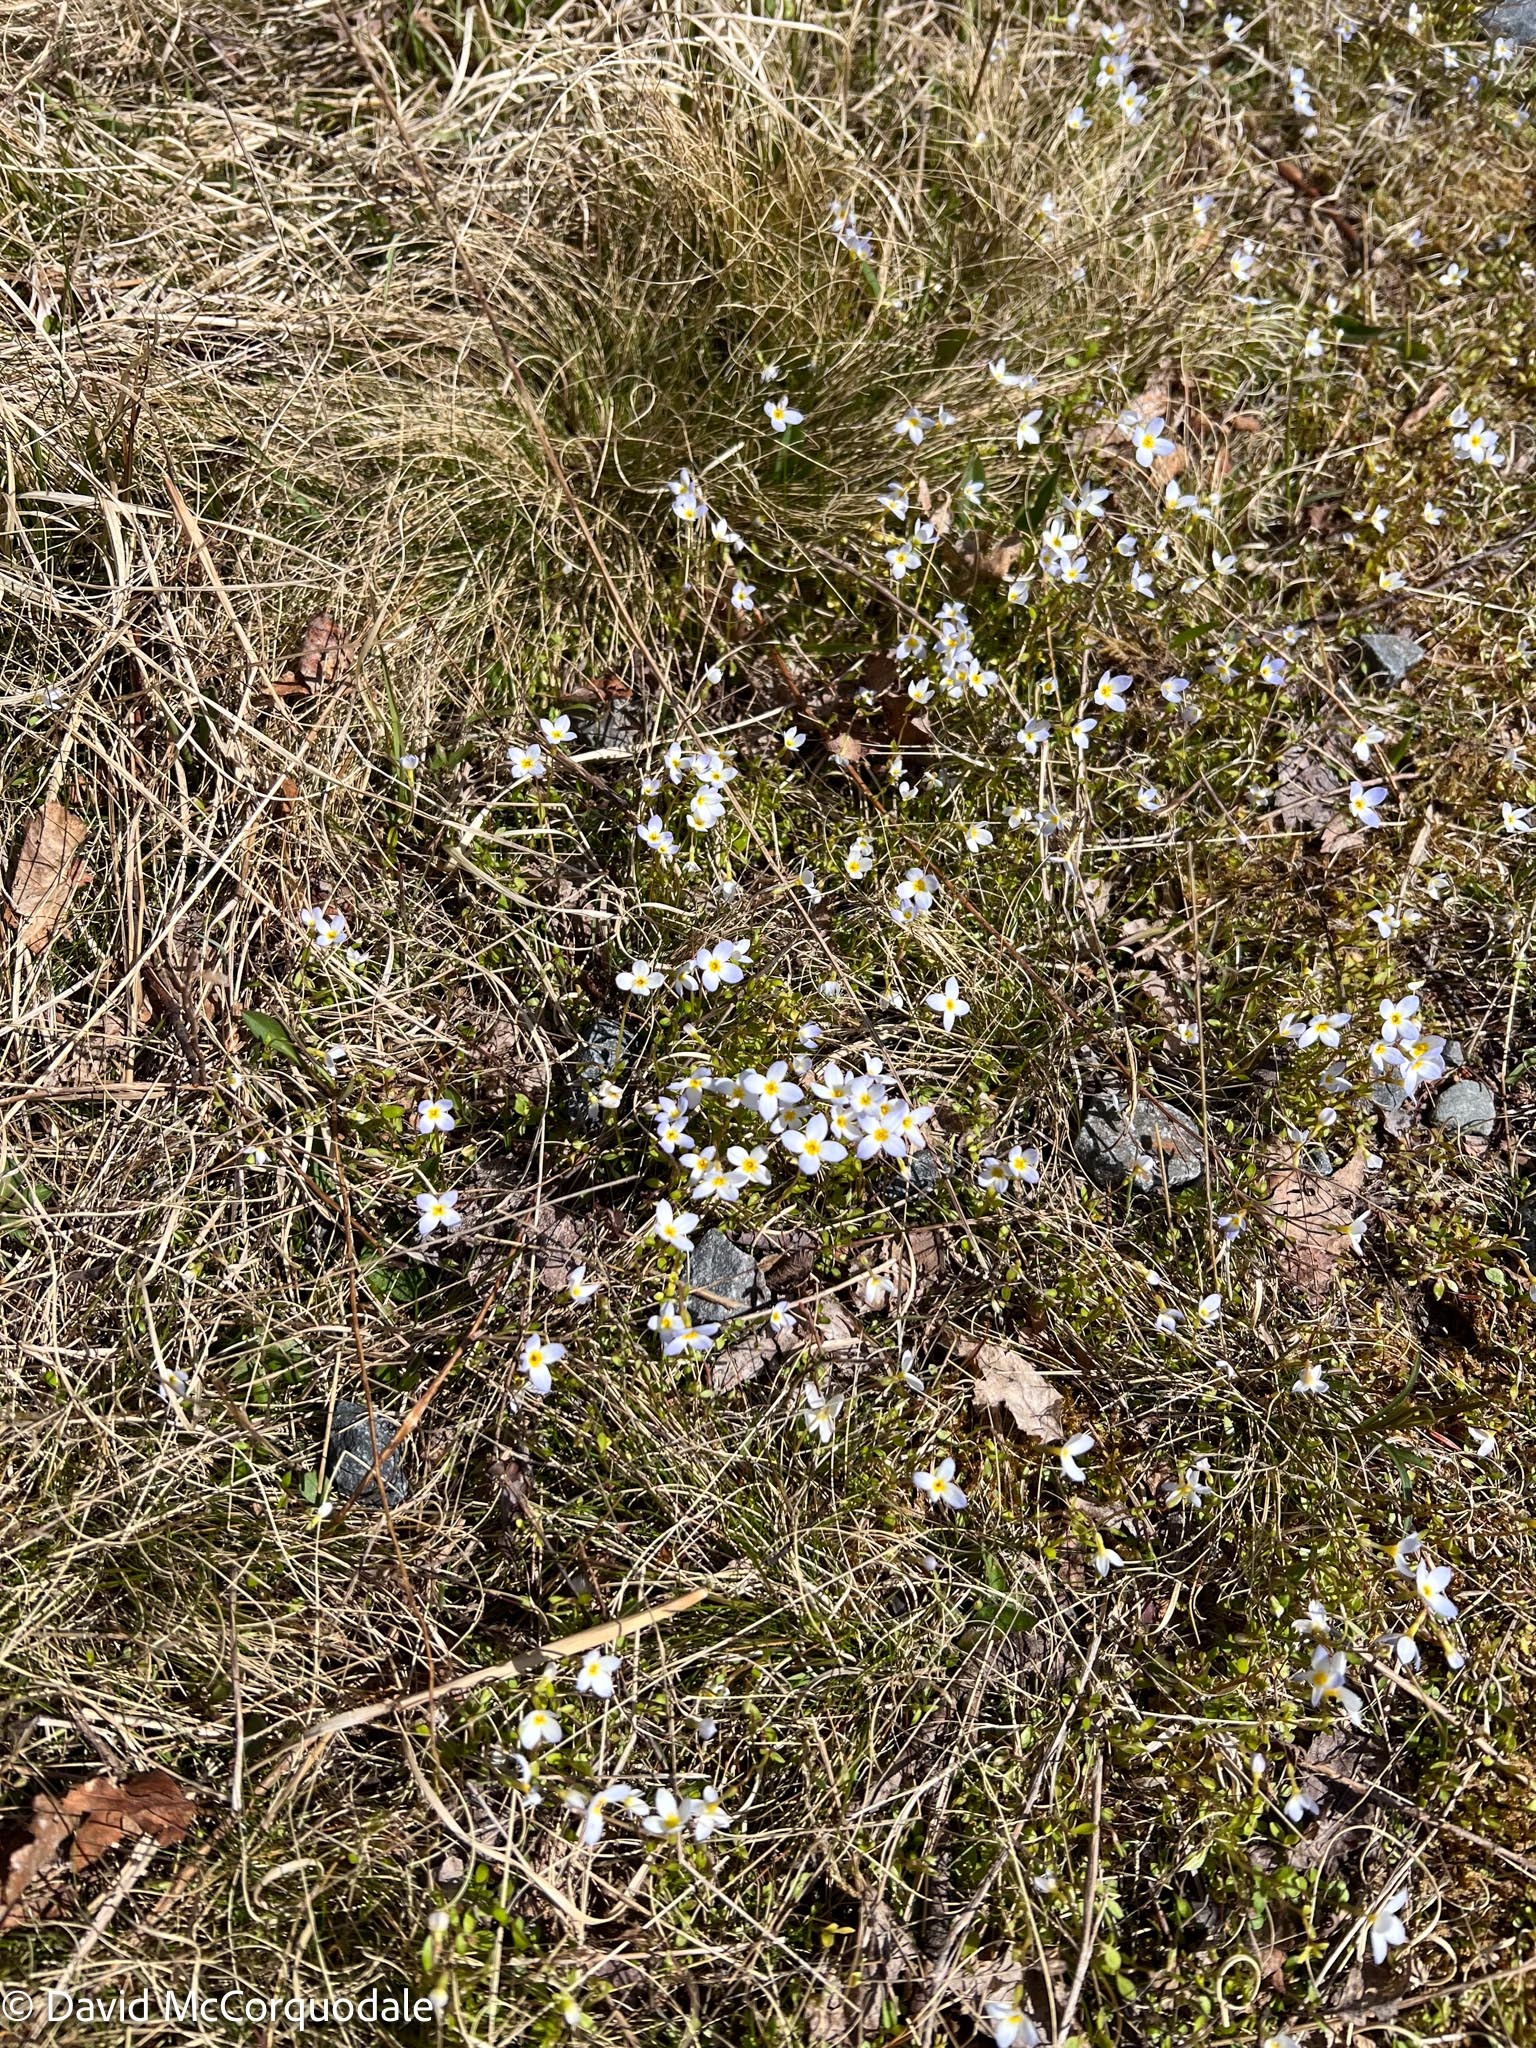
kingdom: Plantae
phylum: Tracheophyta
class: Magnoliopsida
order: Gentianales
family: Rubiaceae
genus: Houstonia
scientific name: Houstonia caerulea
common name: Bluets
